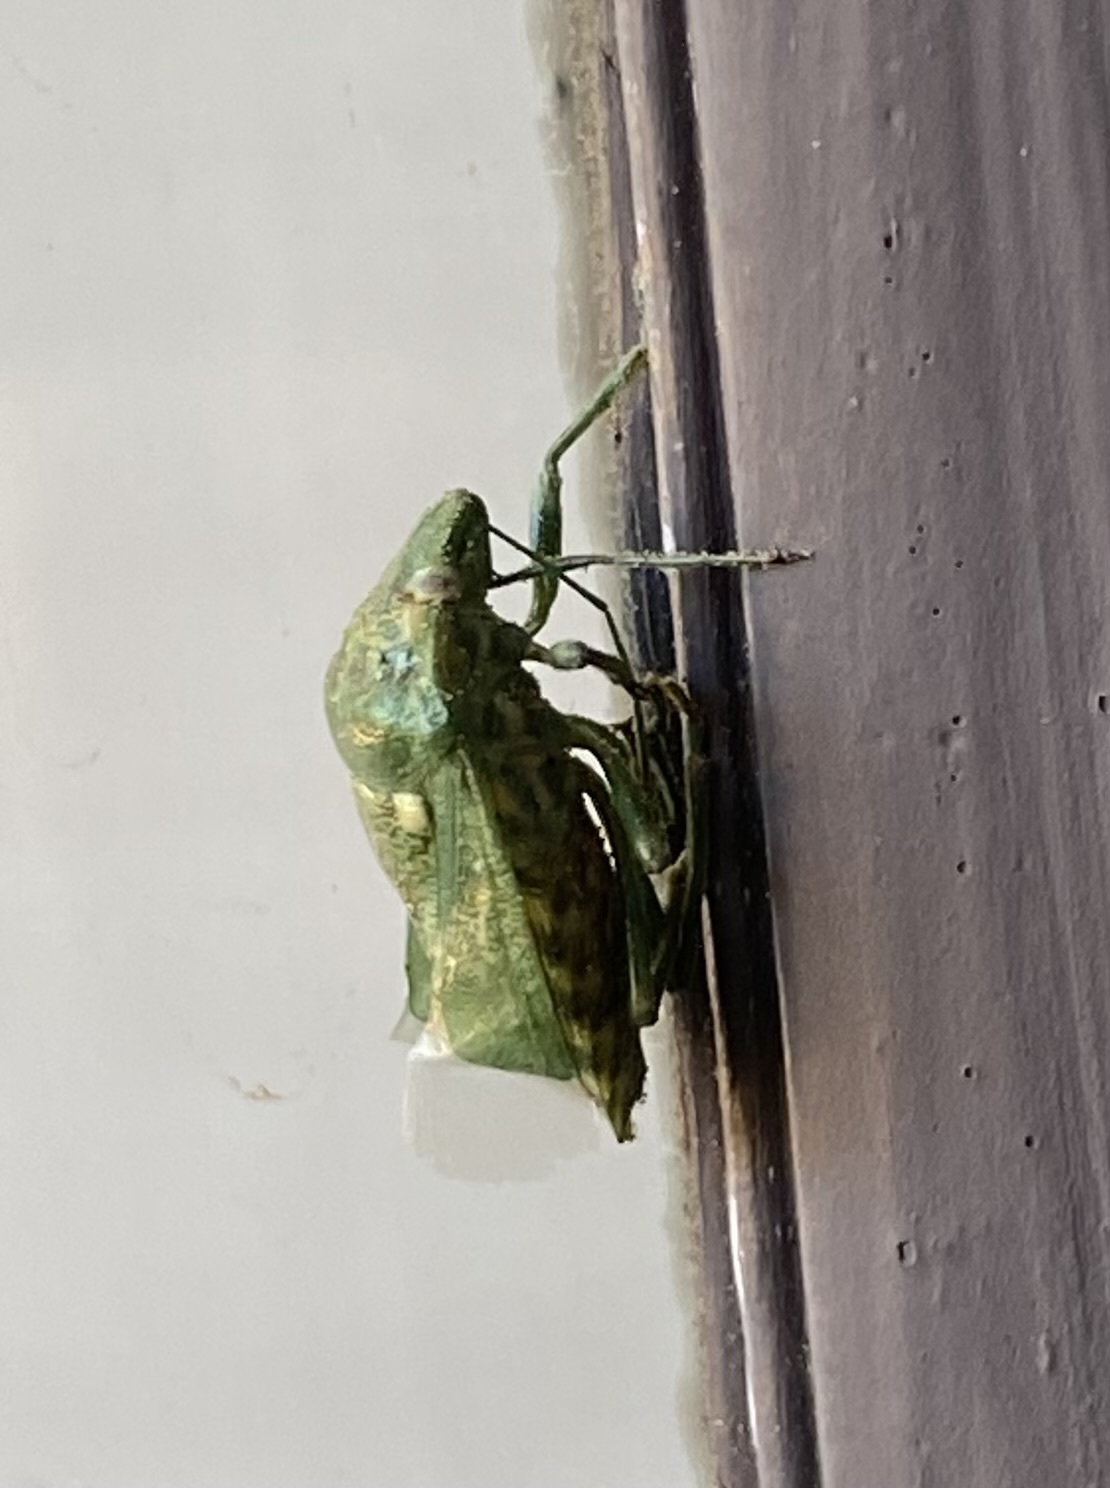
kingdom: Animalia
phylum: Arthropoda
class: Insecta
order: Hemiptera
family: Pentatomidae
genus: Banasa
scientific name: Banasa euchlora
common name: Cedar berry bug
